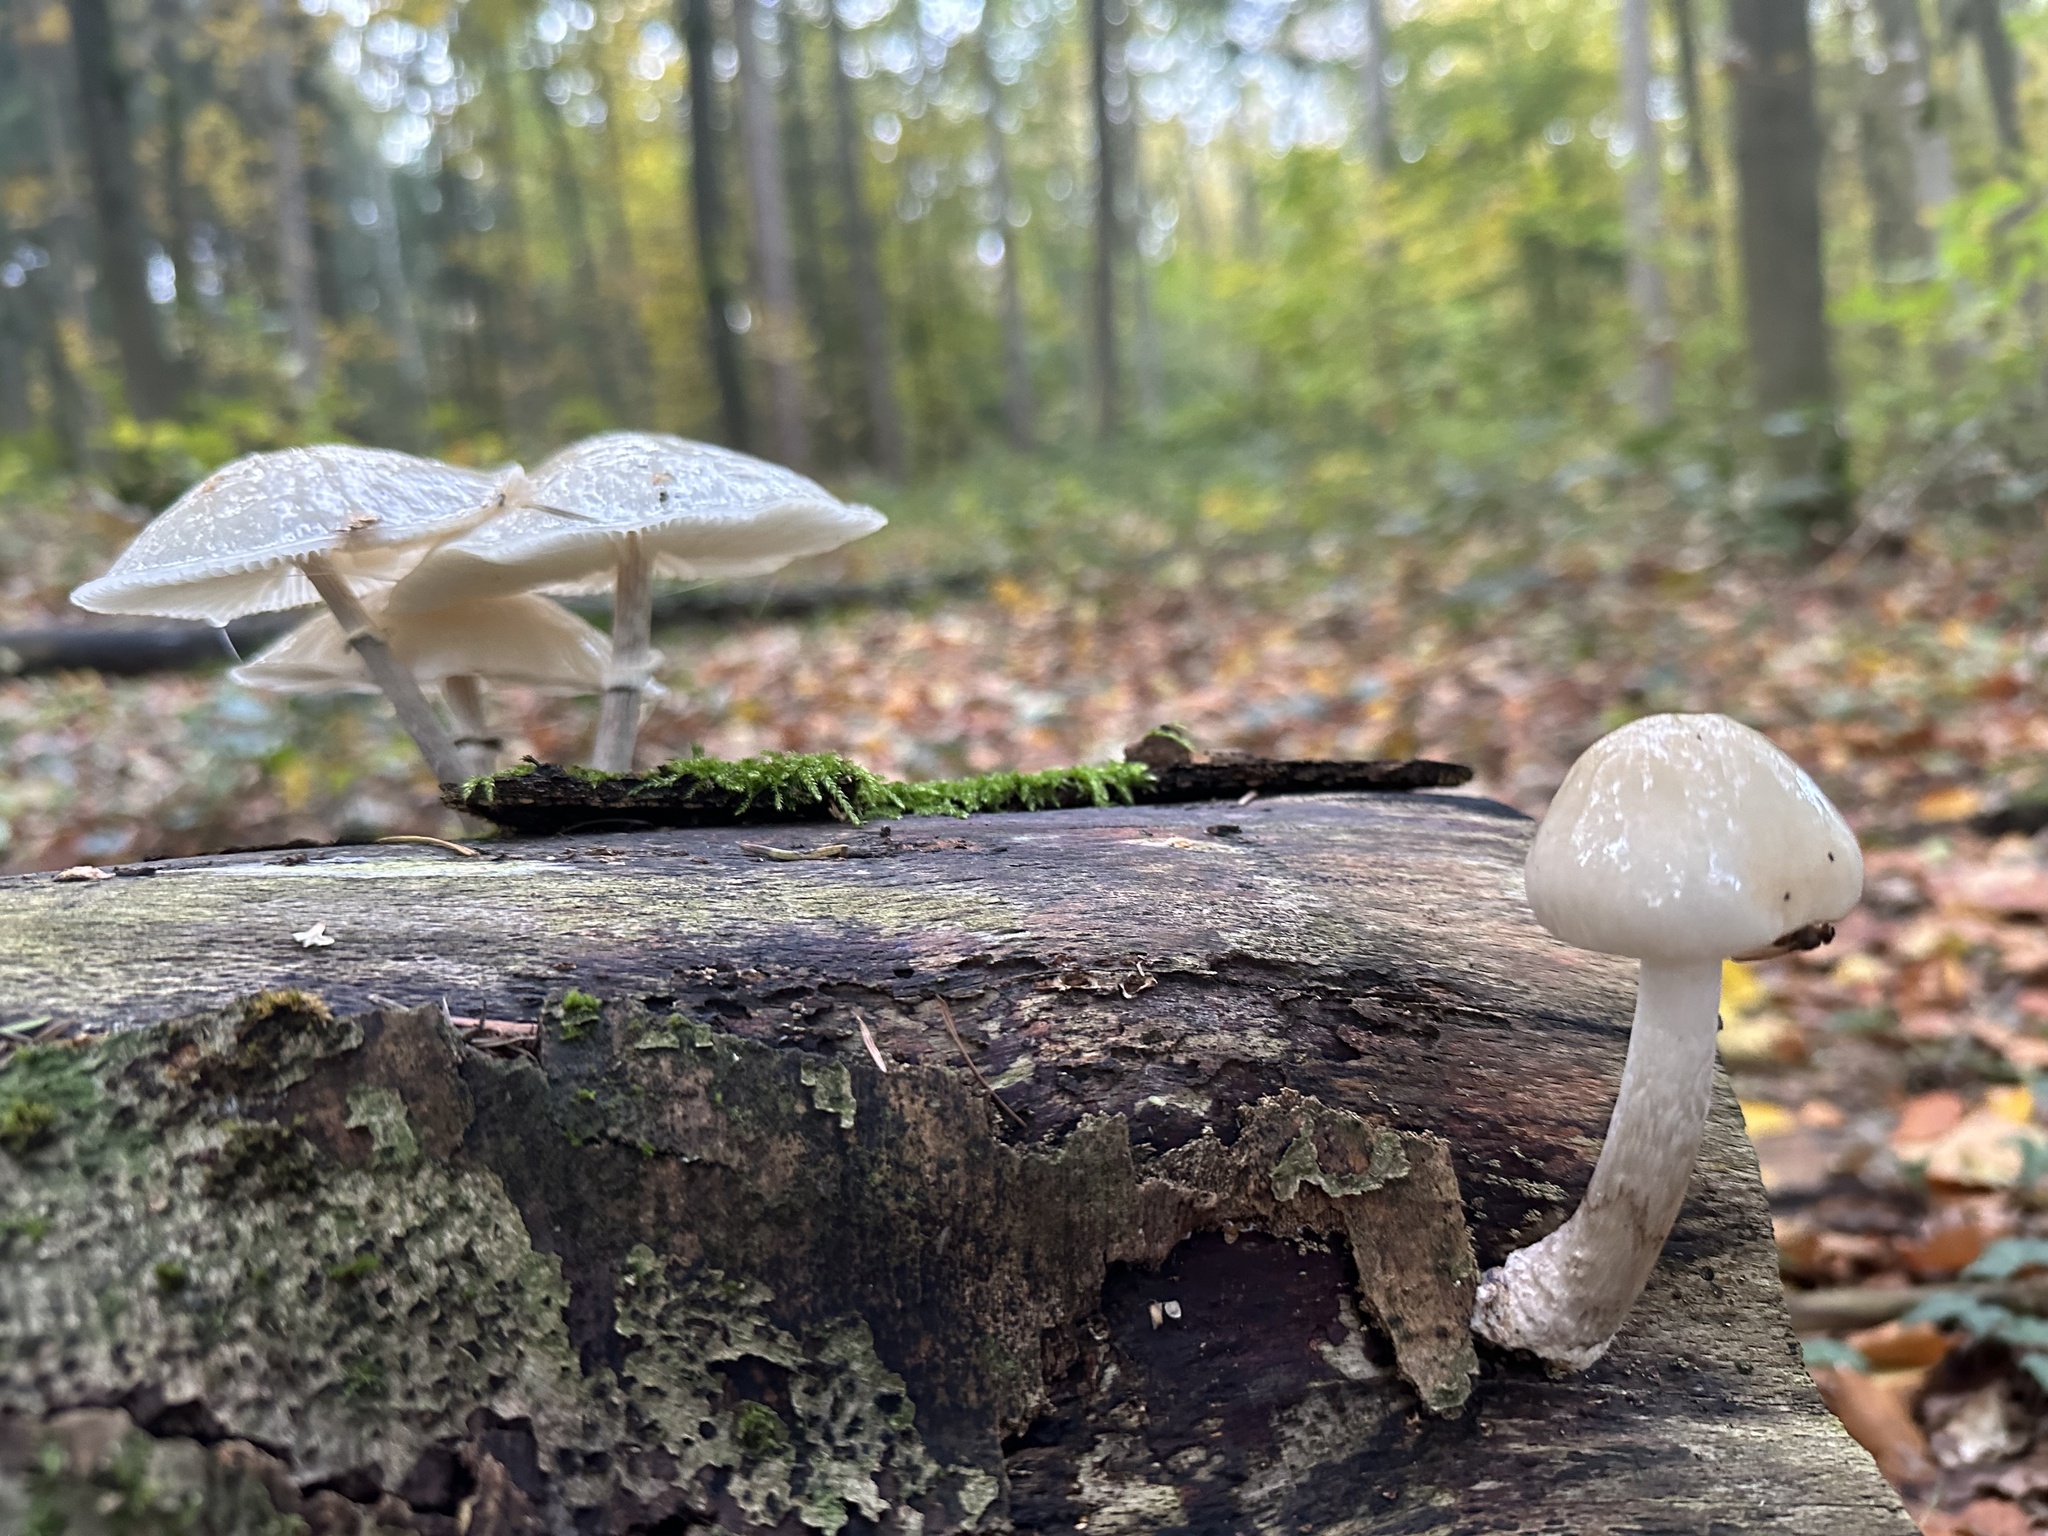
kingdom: Fungi
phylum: Basidiomycota
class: Agaricomycetes
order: Agaricales
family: Physalacriaceae
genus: Mucidula
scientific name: Mucidula mucida
